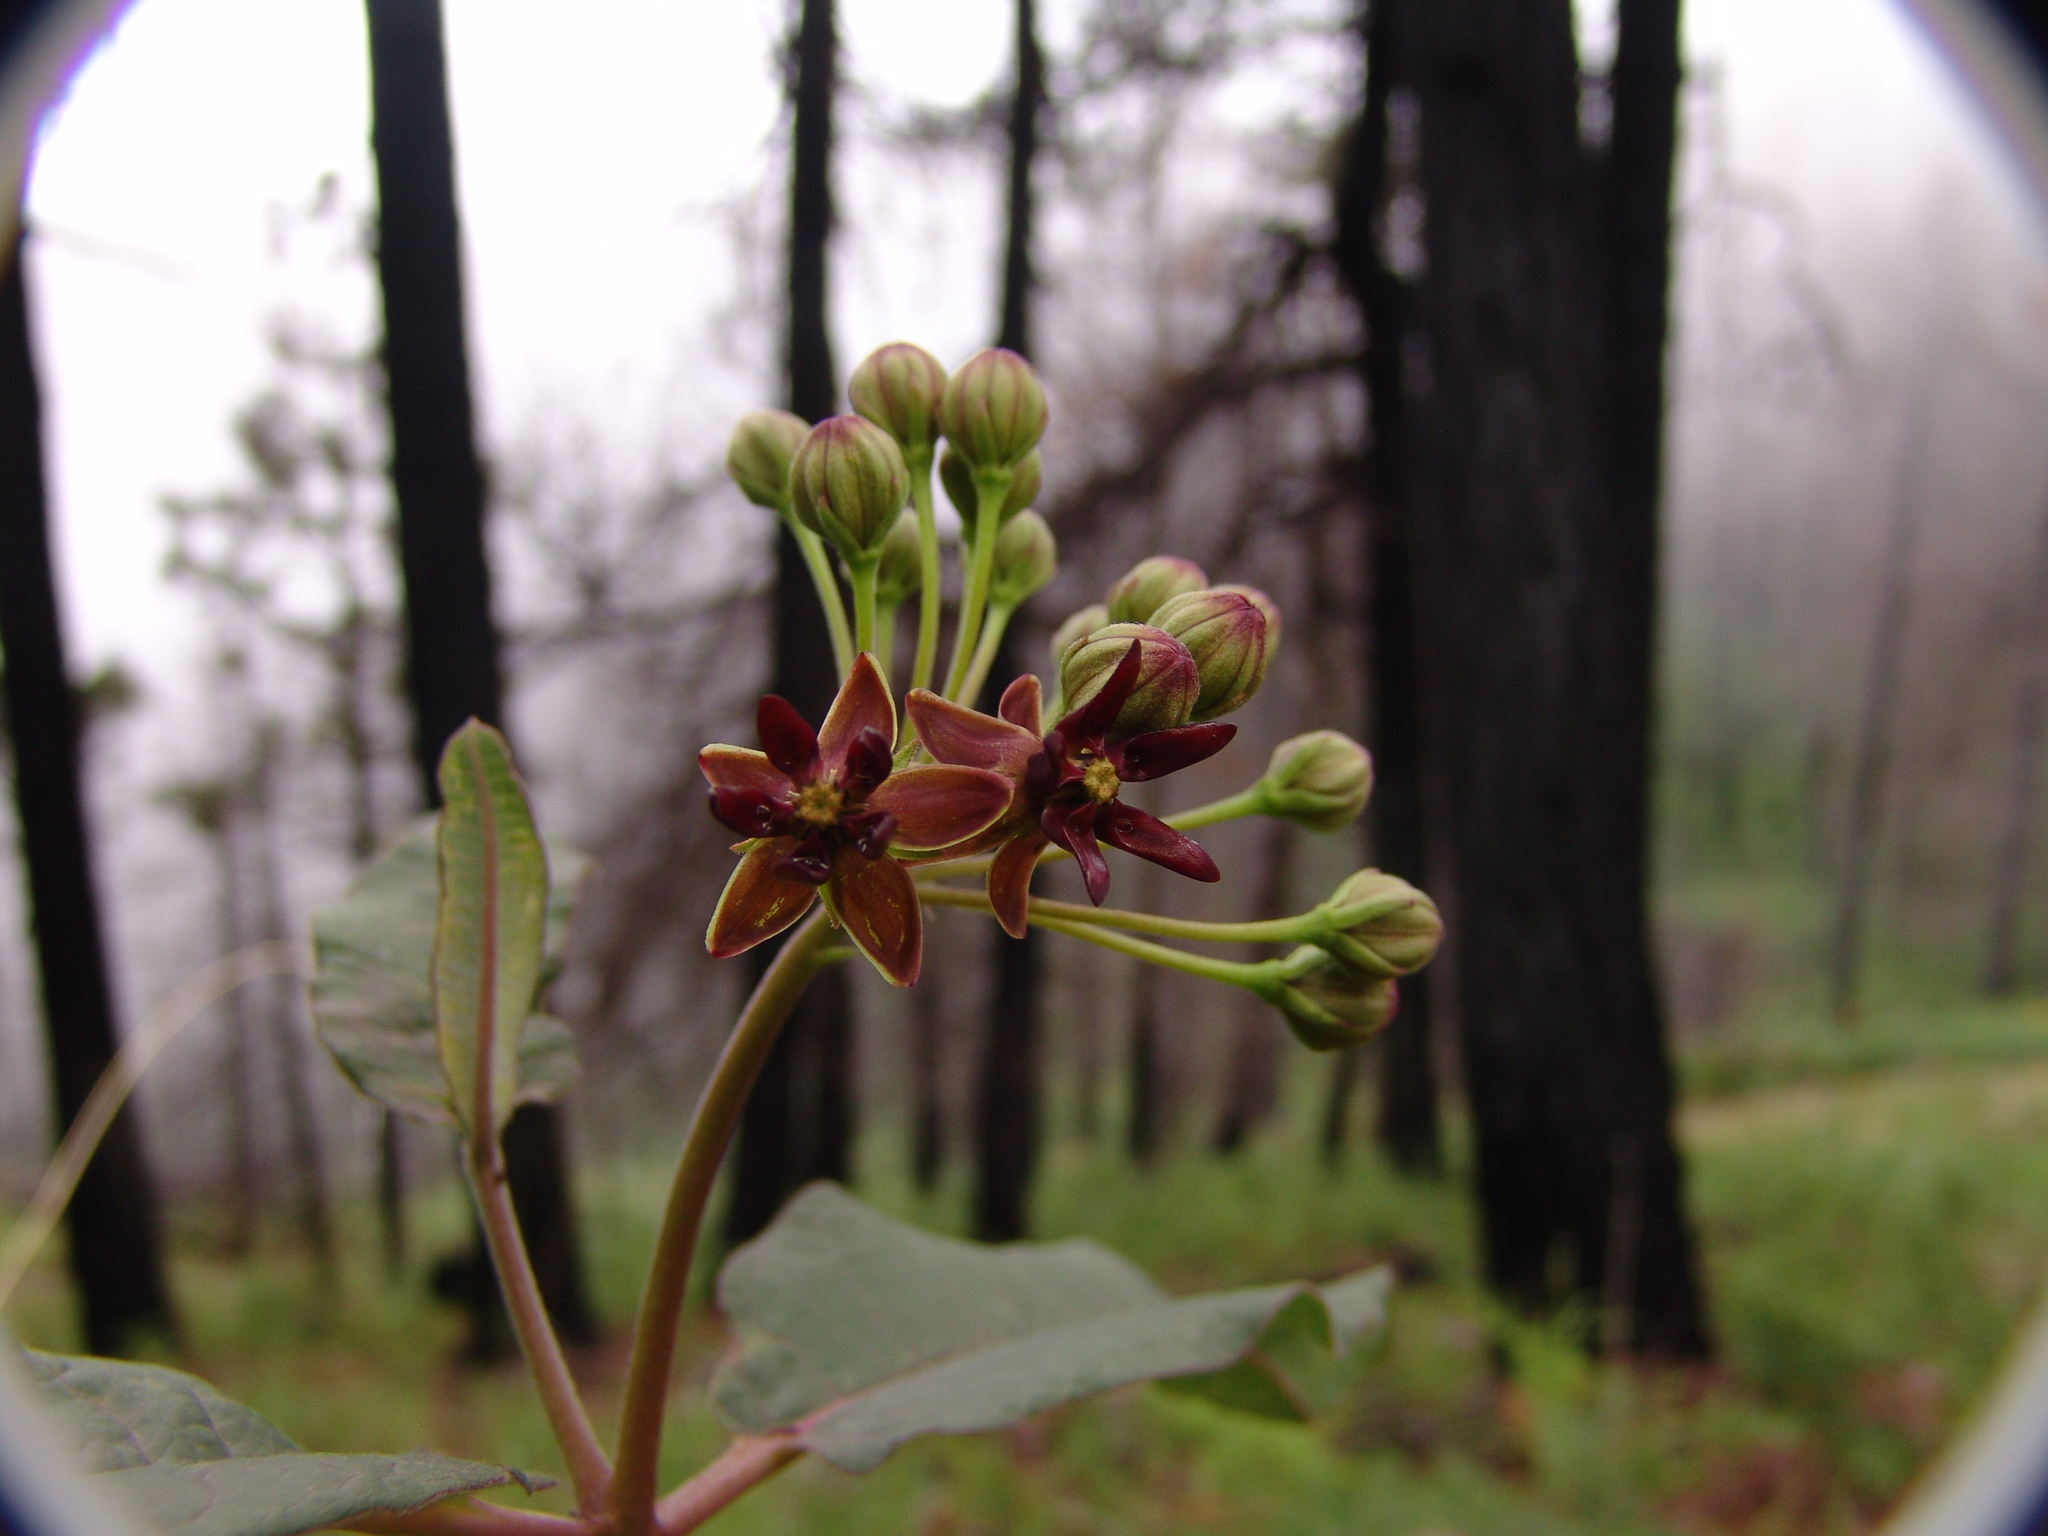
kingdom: Plantae
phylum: Tracheophyta
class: Magnoliopsida
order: Gentianales
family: Apocynaceae
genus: Asclepias
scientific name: Asclepias hypoleuca
